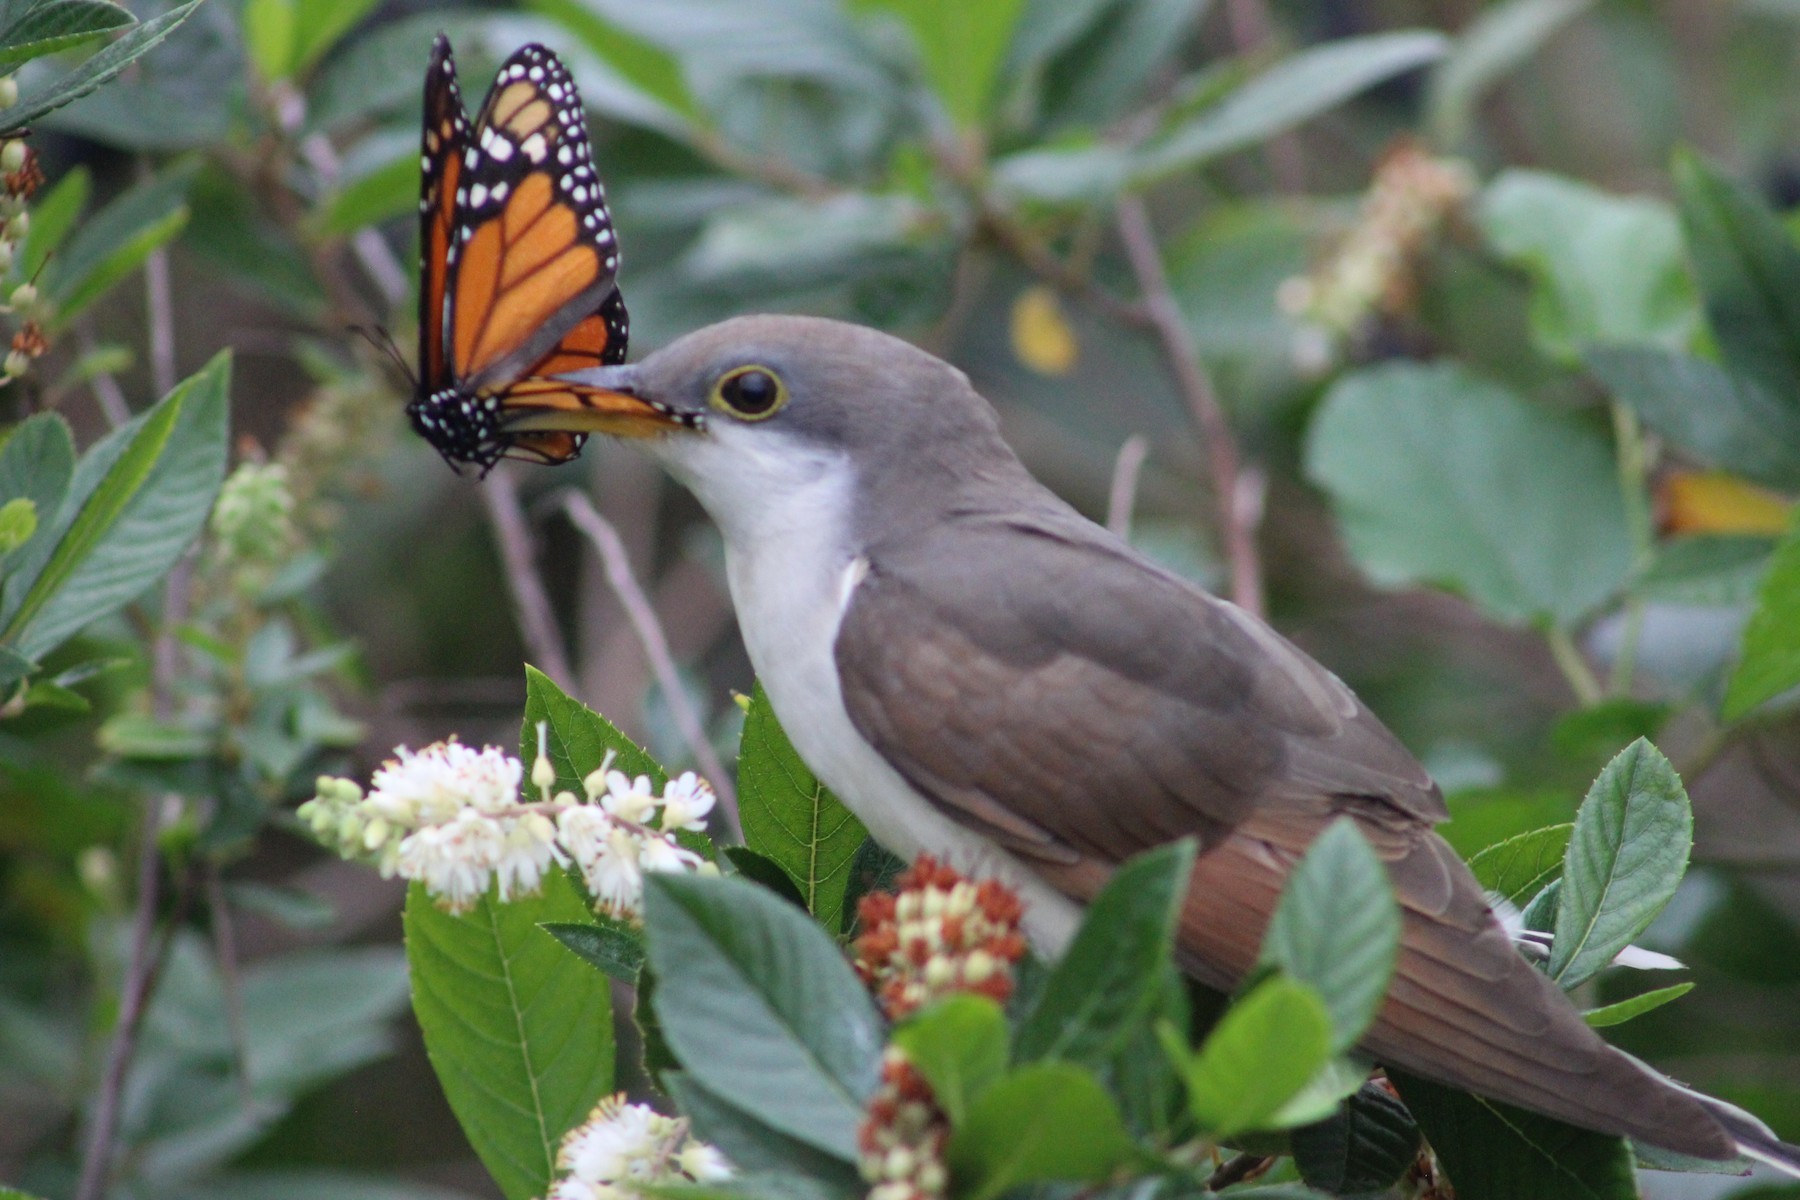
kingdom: Animalia
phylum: Chordata
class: Aves
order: Cuculiformes
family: Cuculidae
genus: Coccyzus
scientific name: Coccyzus americanus
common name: Yellow-billed cuckoo
